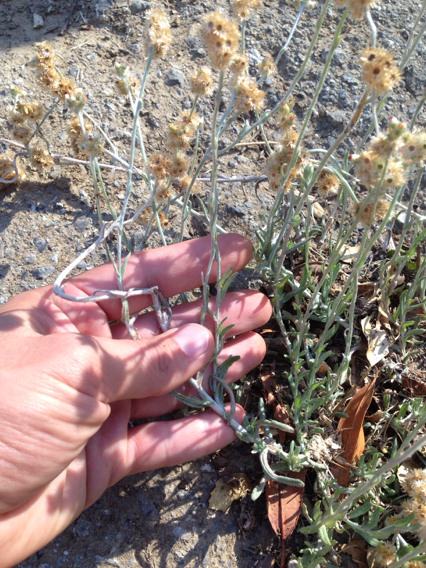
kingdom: Plantae
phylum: Tracheophyta
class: Magnoliopsida
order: Asterales
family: Asteraceae
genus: Helichrysum
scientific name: Helichrysum luteoalbum
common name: Daisy
